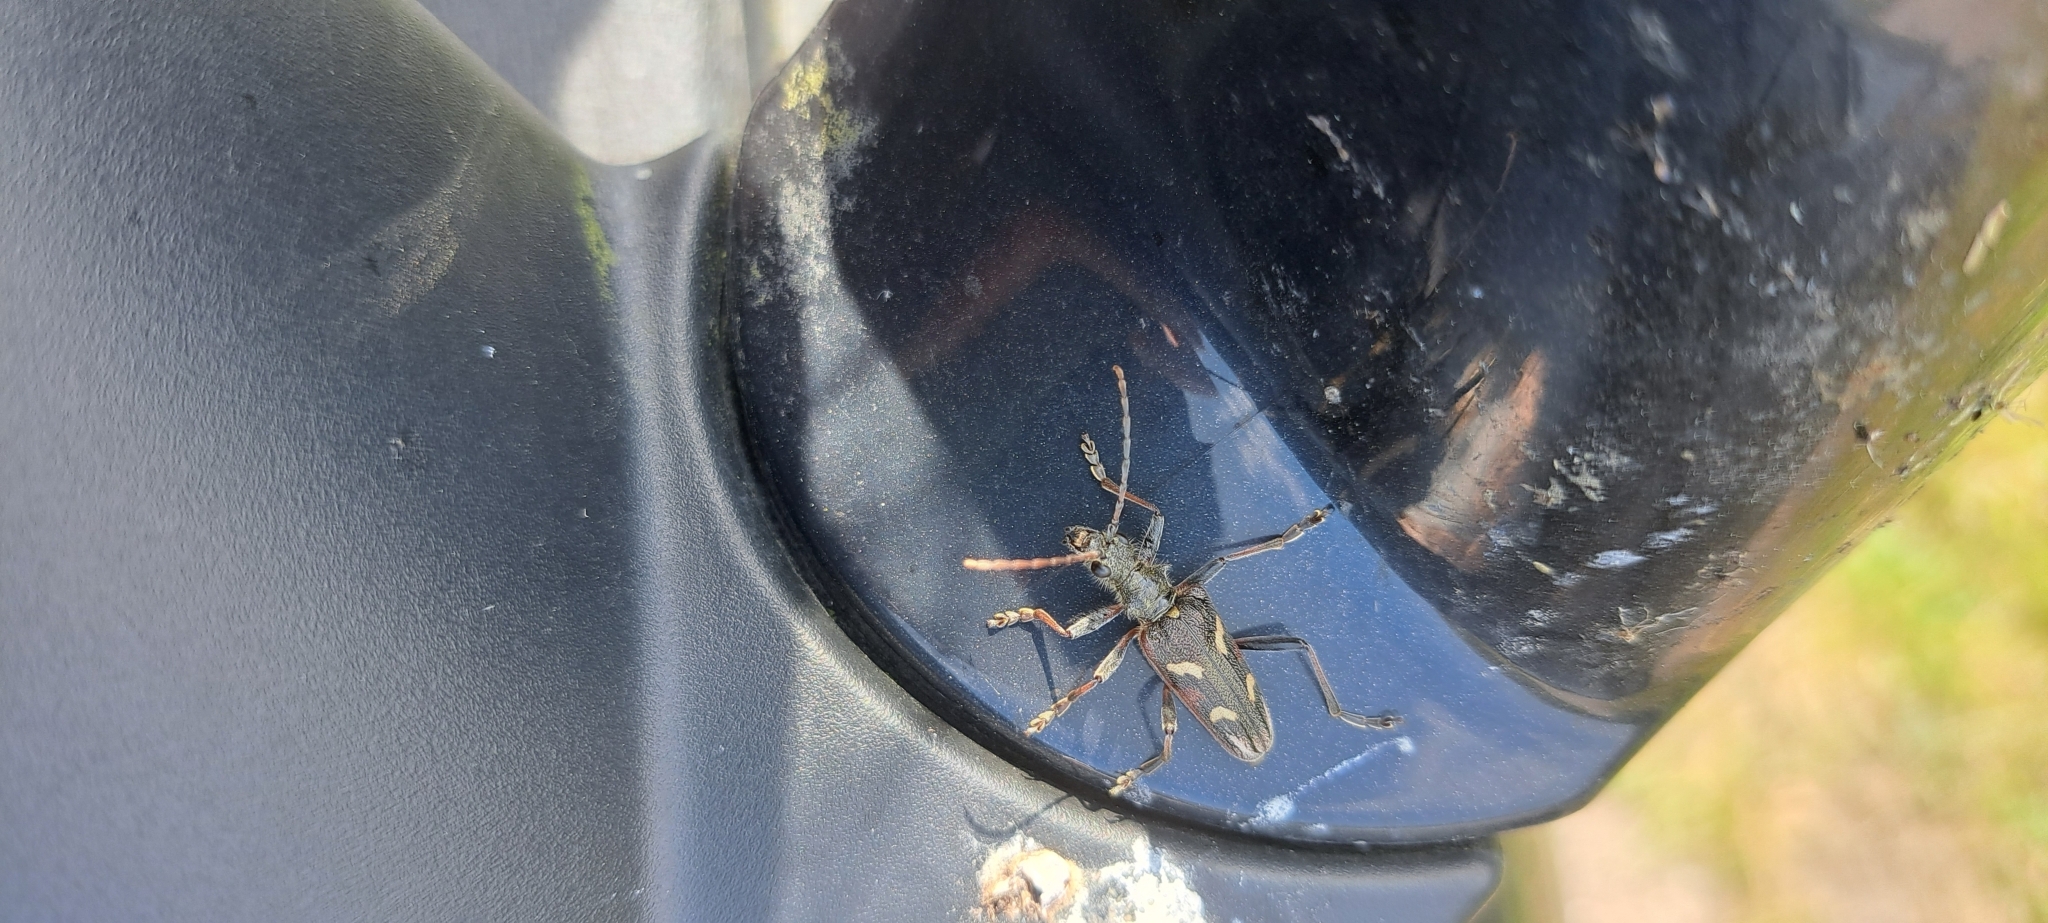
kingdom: Animalia
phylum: Arthropoda
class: Insecta
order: Coleoptera
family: Cerambycidae
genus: Rhagium
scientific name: Rhagium bifasciatum
